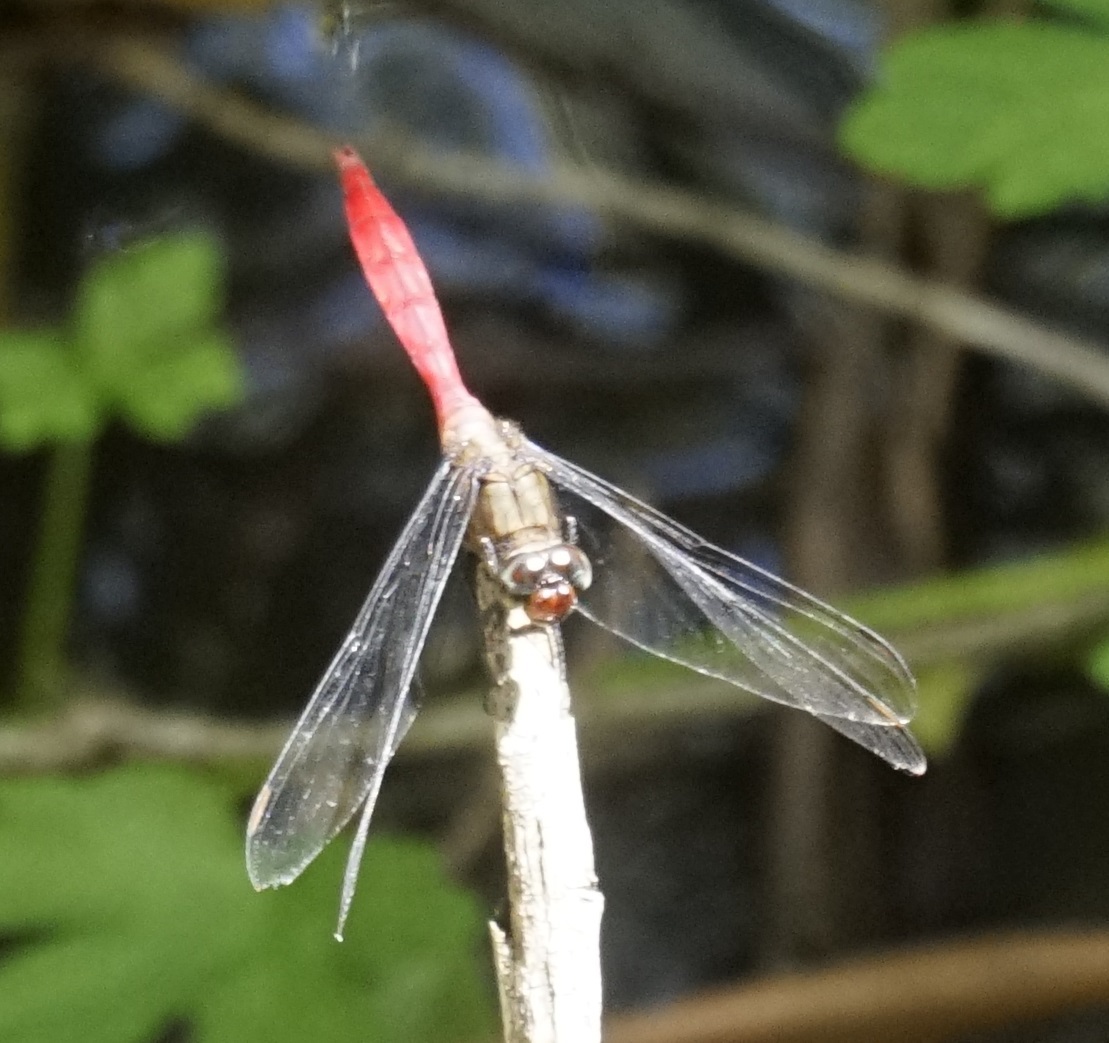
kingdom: Animalia
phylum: Arthropoda
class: Insecta
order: Odonata
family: Libellulidae
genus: Orthetrum
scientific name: Orthetrum villosovittatum
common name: Firery skimmer
